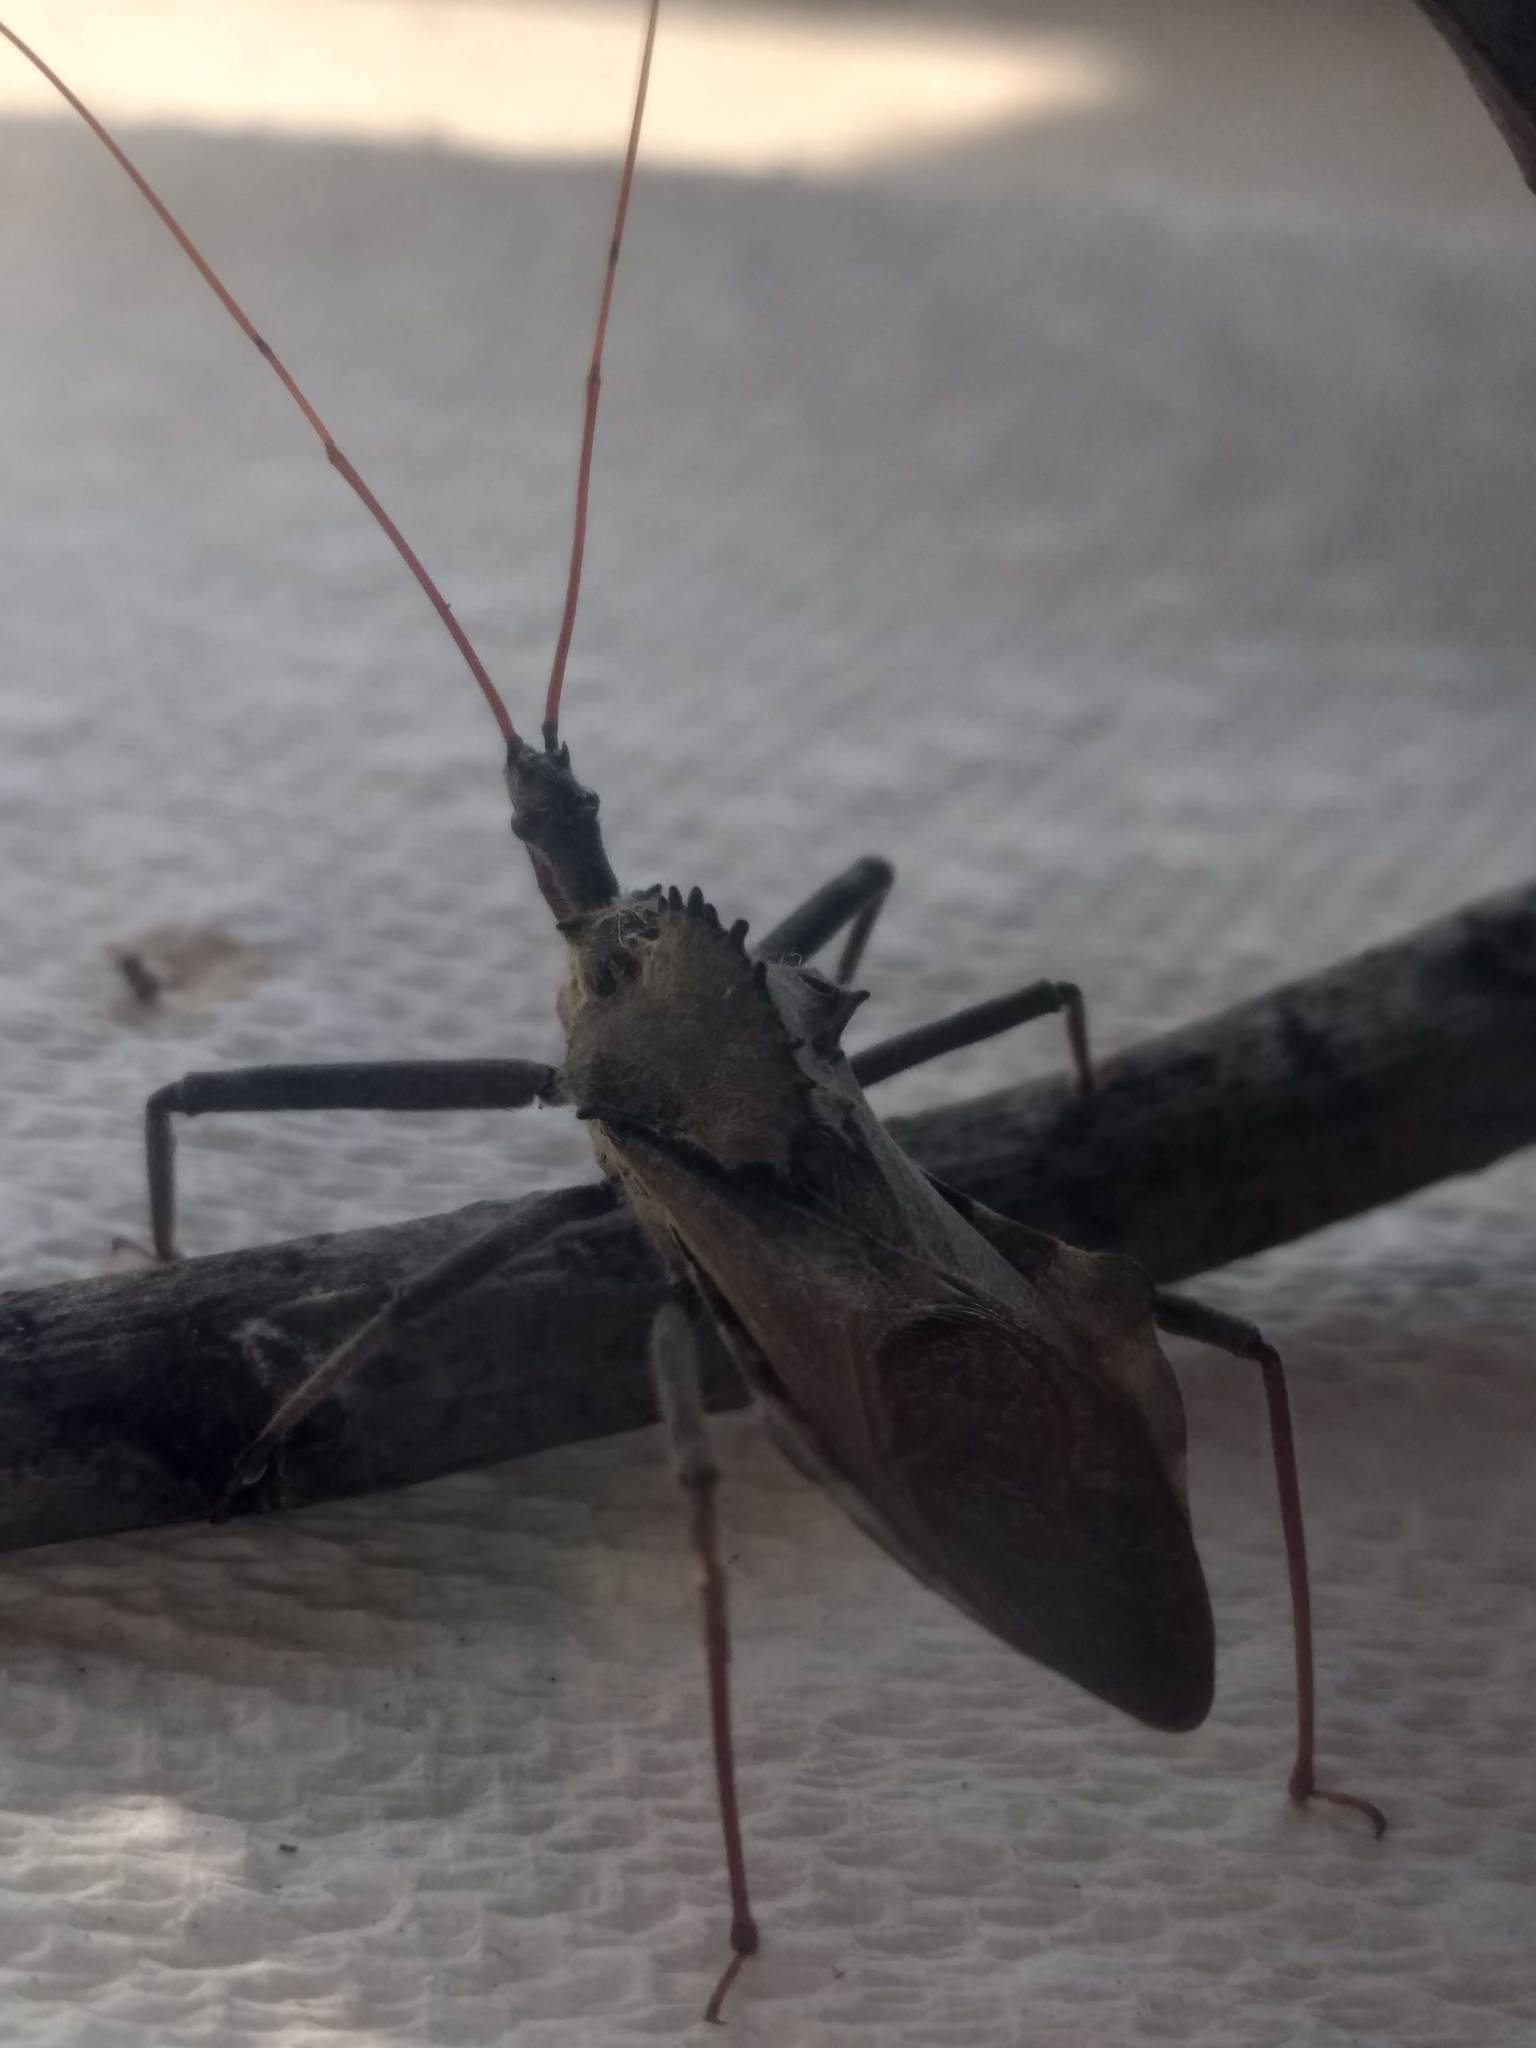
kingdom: Animalia
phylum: Arthropoda
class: Insecta
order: Hemiptera
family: Reduviidae
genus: Arilus
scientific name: Arilus cristatus
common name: North american wheel bug
